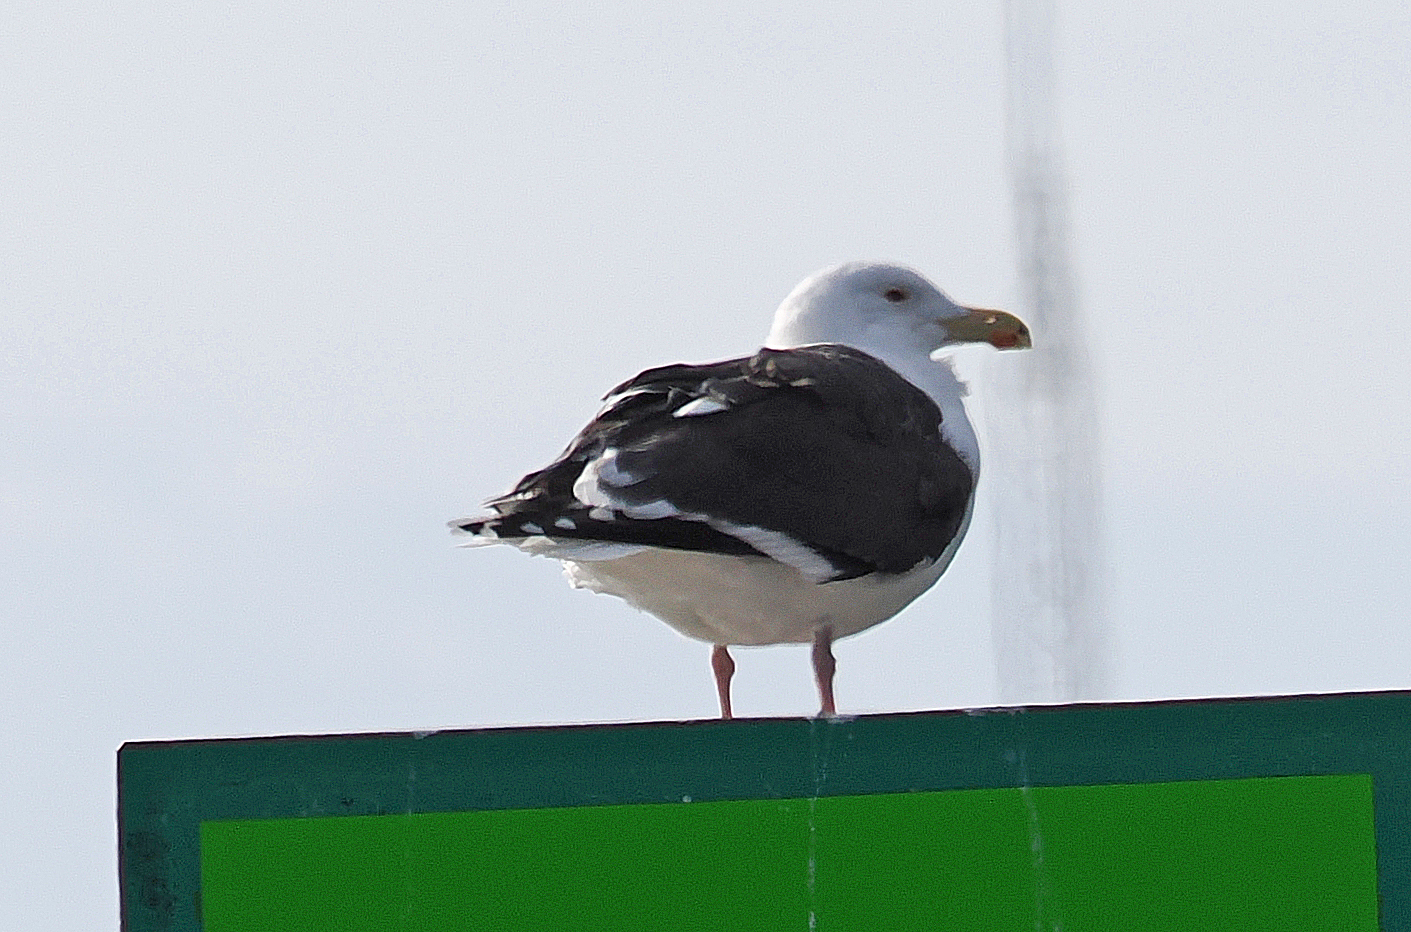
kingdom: Animalia
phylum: Chordata
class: Aves
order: Charadriiformes
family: Laridae
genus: Larus
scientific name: Larus marinus
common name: Great black-backed gull
